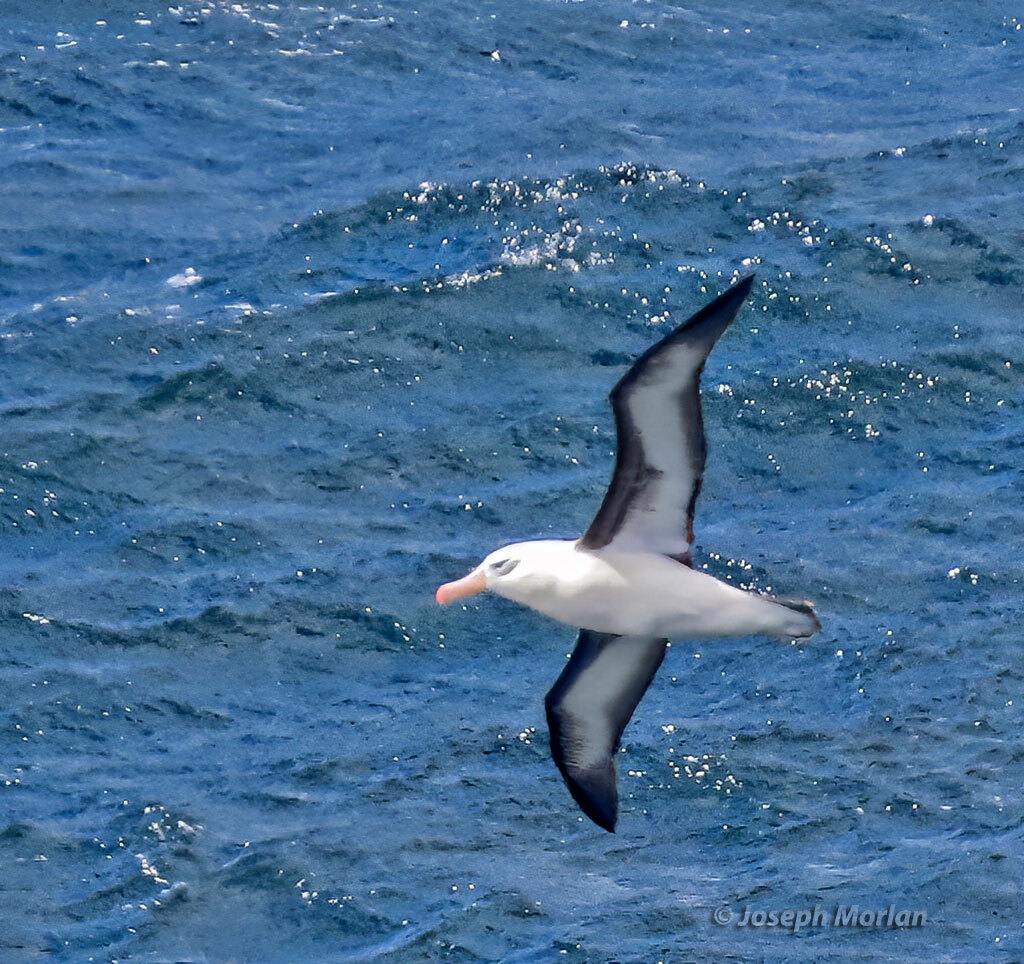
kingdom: Animalia
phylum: Chordata
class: Aves
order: Procellariiformes
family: Diomedeidae
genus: Thalassarche
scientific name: Thalassarche melanophris
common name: Black-browed albatross
